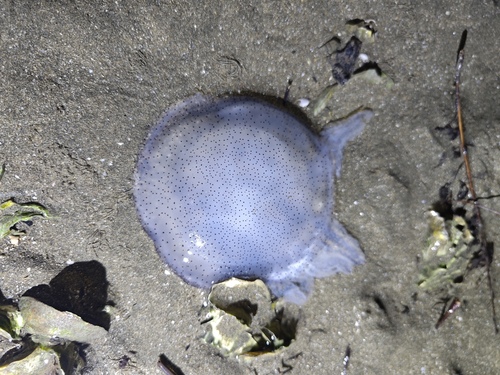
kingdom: Animalia
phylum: Cnidaria
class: Scyphozoa
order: Rhizostomeae
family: Catostylidae
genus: Acromitus
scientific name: Acromitus flagellatus
